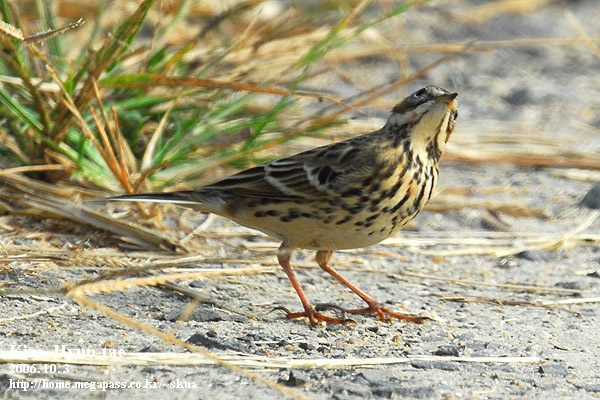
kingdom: Animalia
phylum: Chordata
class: Aves
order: Passeriformes
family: Motacillidae
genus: Anthus
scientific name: Anthus cervinus
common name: Red-throated pipit
